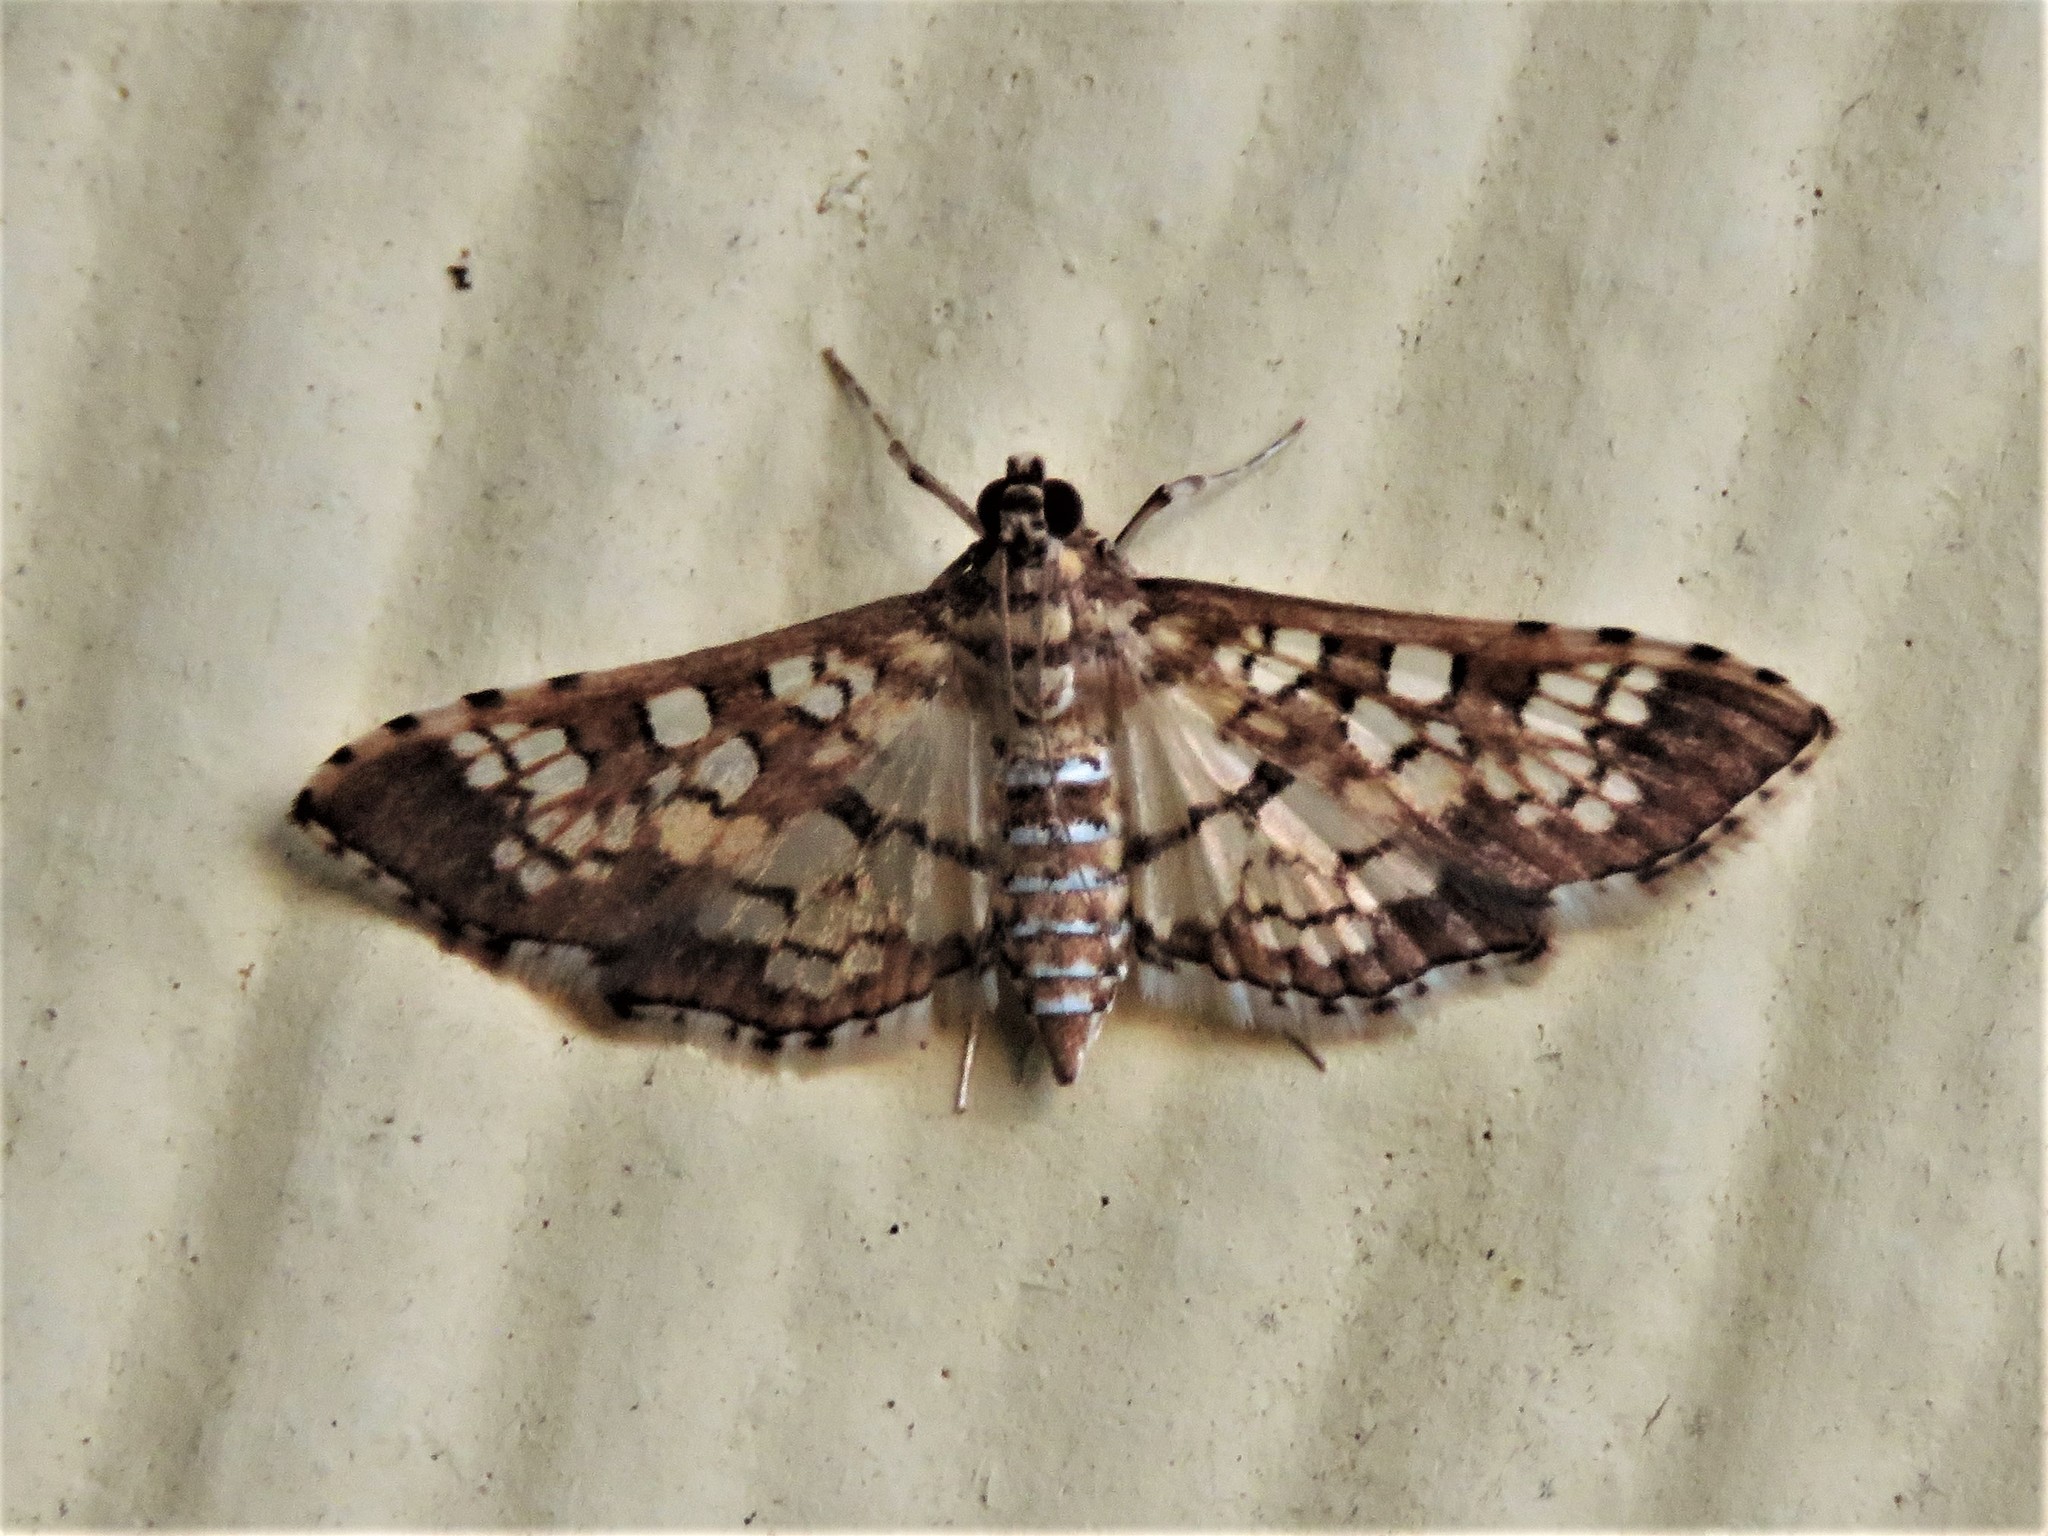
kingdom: Animalia
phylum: Arthropoda
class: Insecta
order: Lepidoptera
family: Crambidae
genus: Samea
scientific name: Samea ecclesialis
